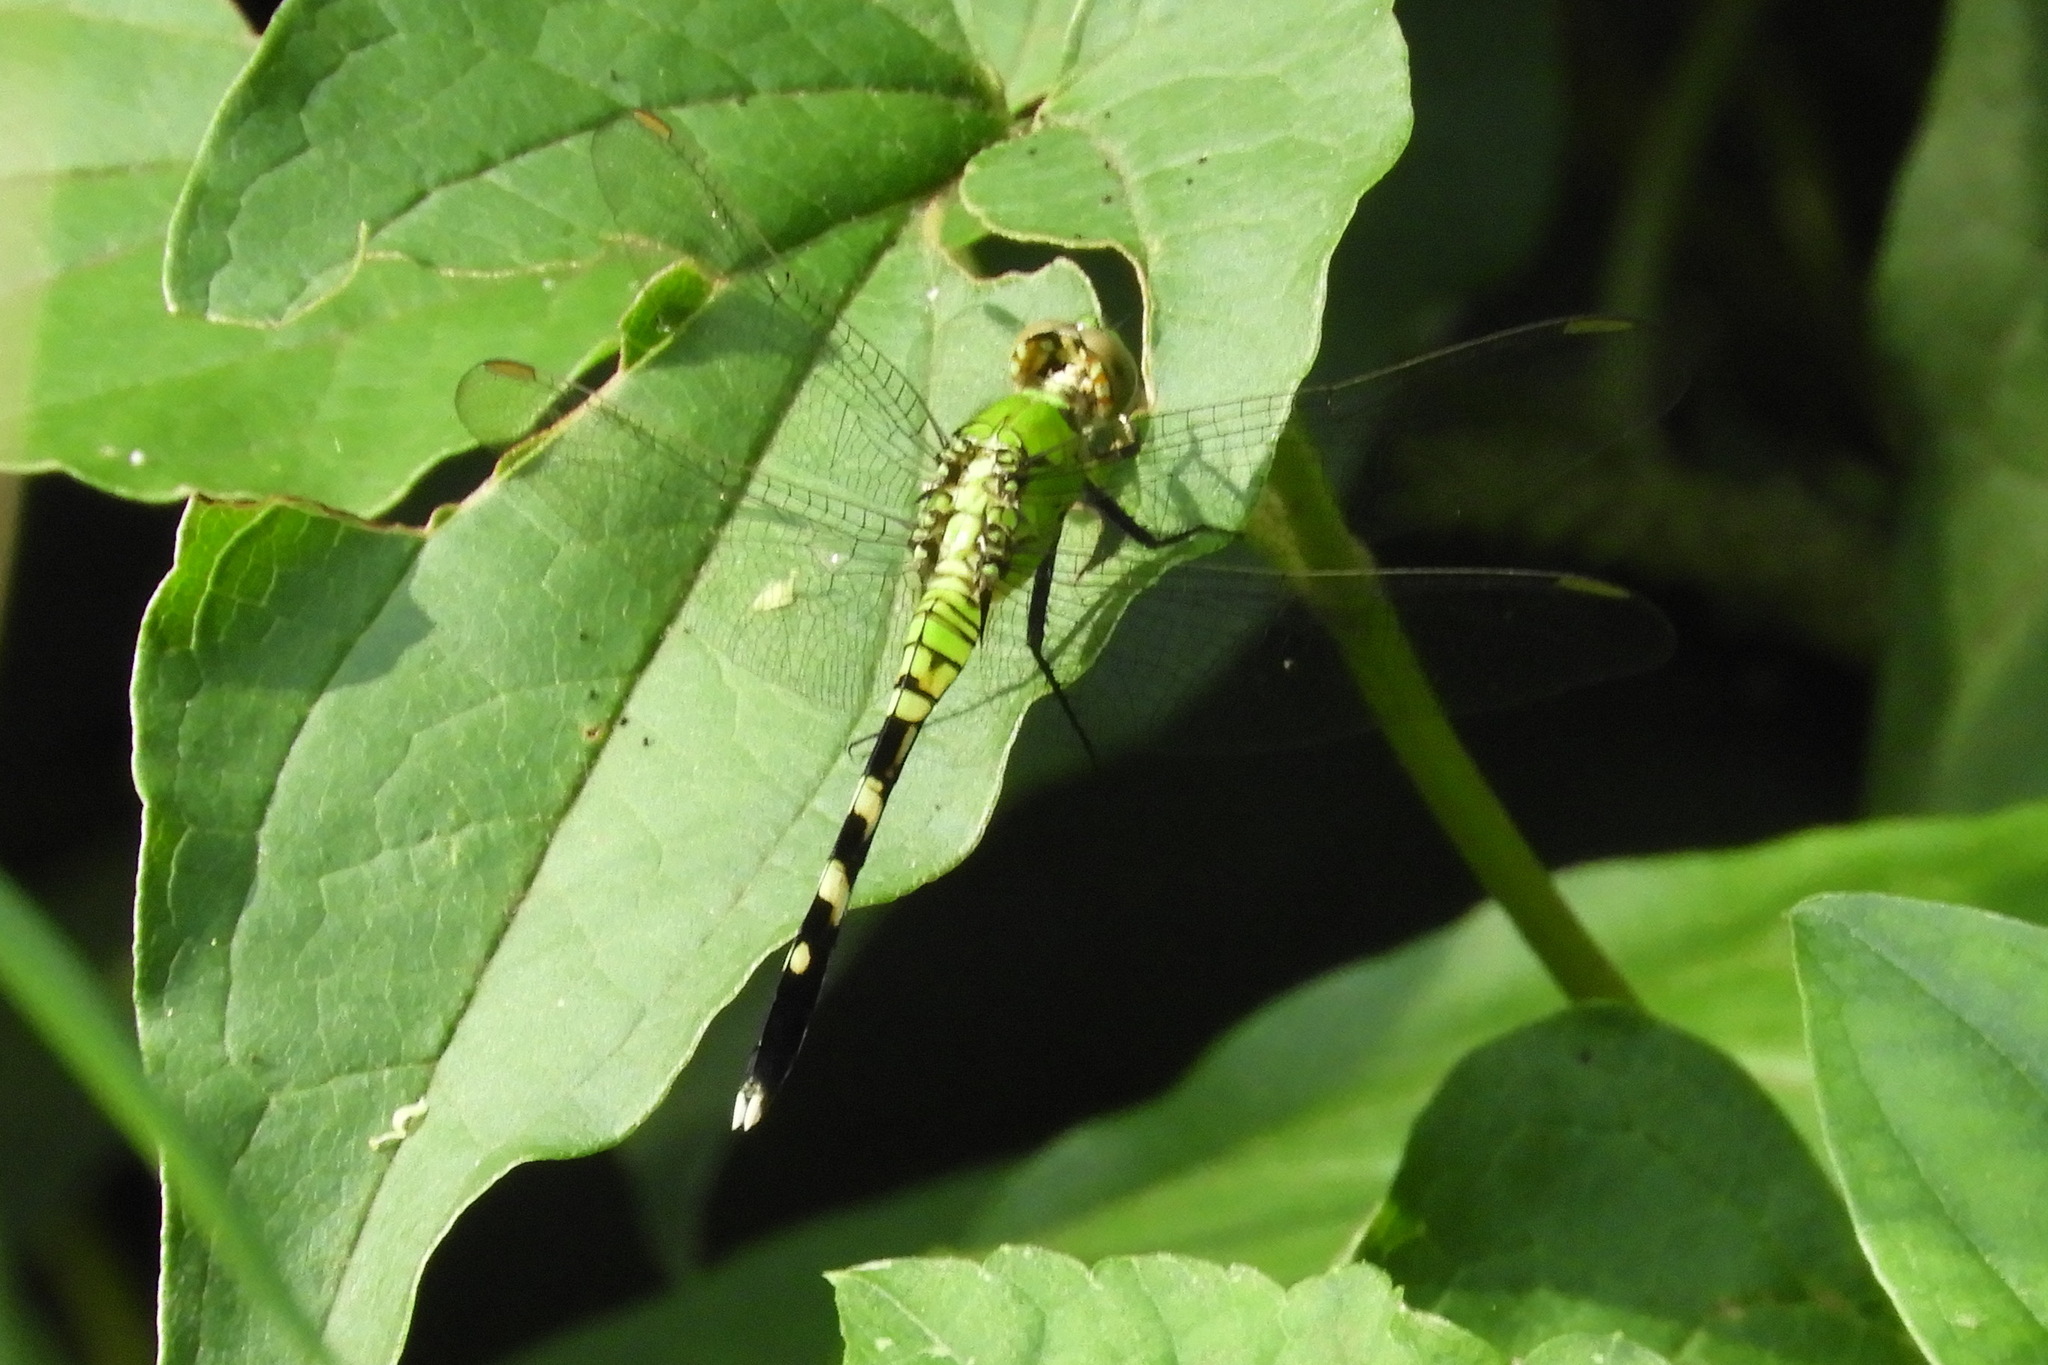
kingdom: Animalia
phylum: Arthropoda
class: Insecta
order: Odonata
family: Libellulidae
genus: Erythemis
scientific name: Erythemis simplicicollis
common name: Eastern pondhawk
